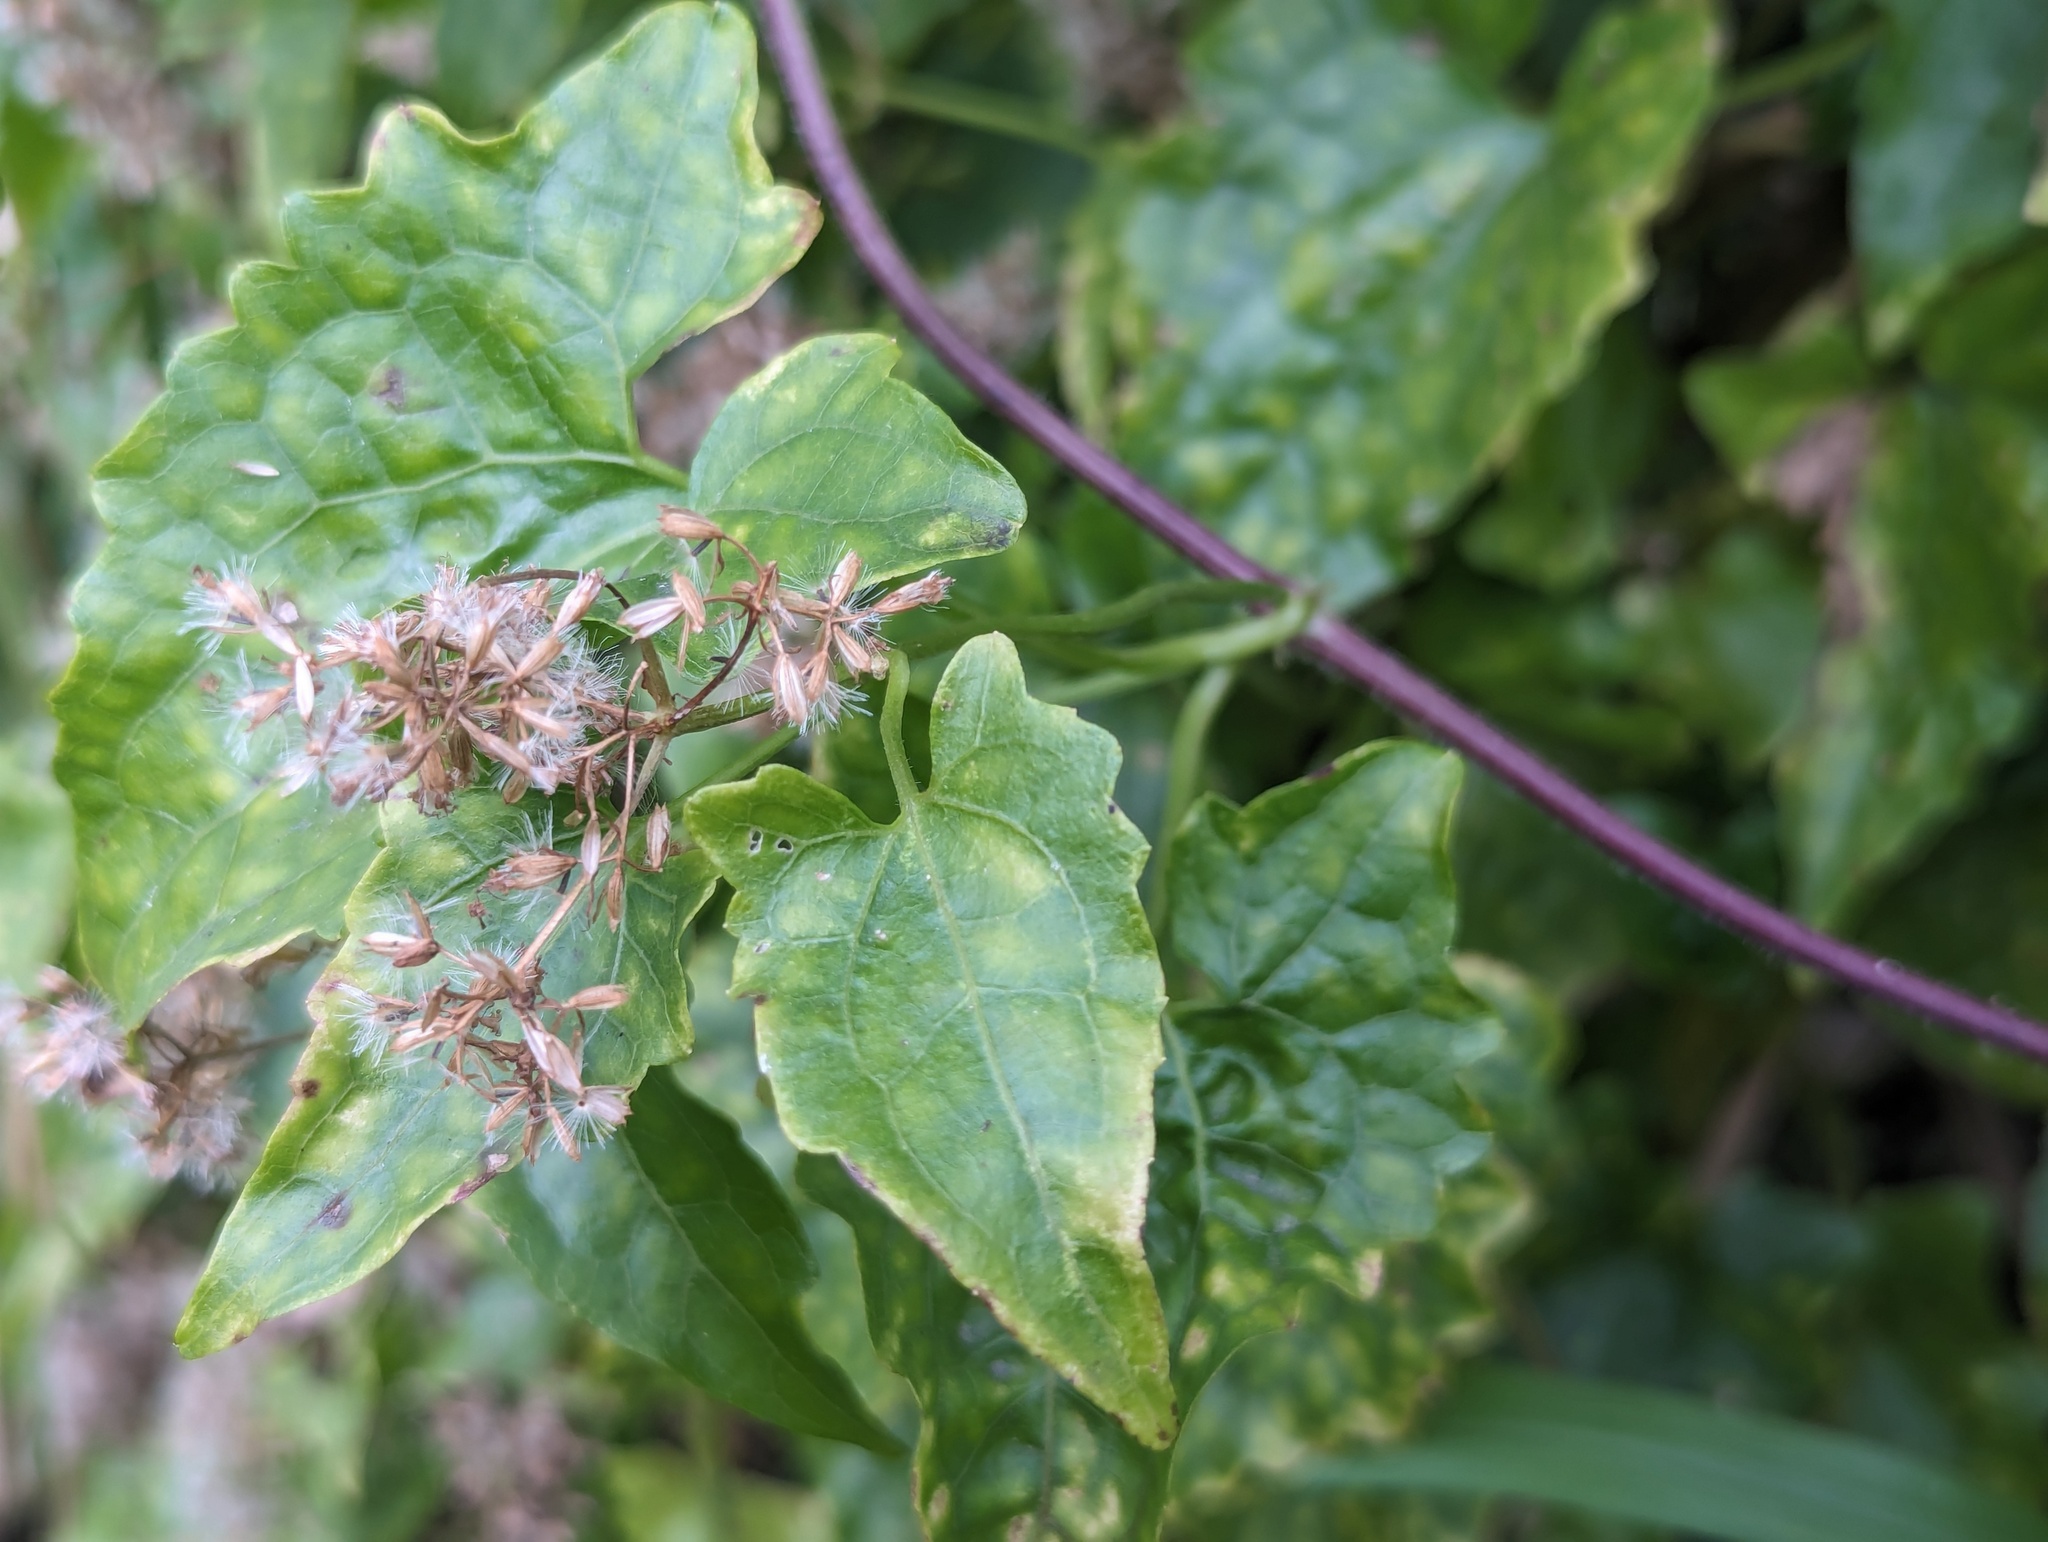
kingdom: Plantae
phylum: Tracheophyta
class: Magnoliopsida
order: Asterales
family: Asteraceae
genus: Mikania
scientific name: Mikania micrantha
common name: Mile-a-minute
